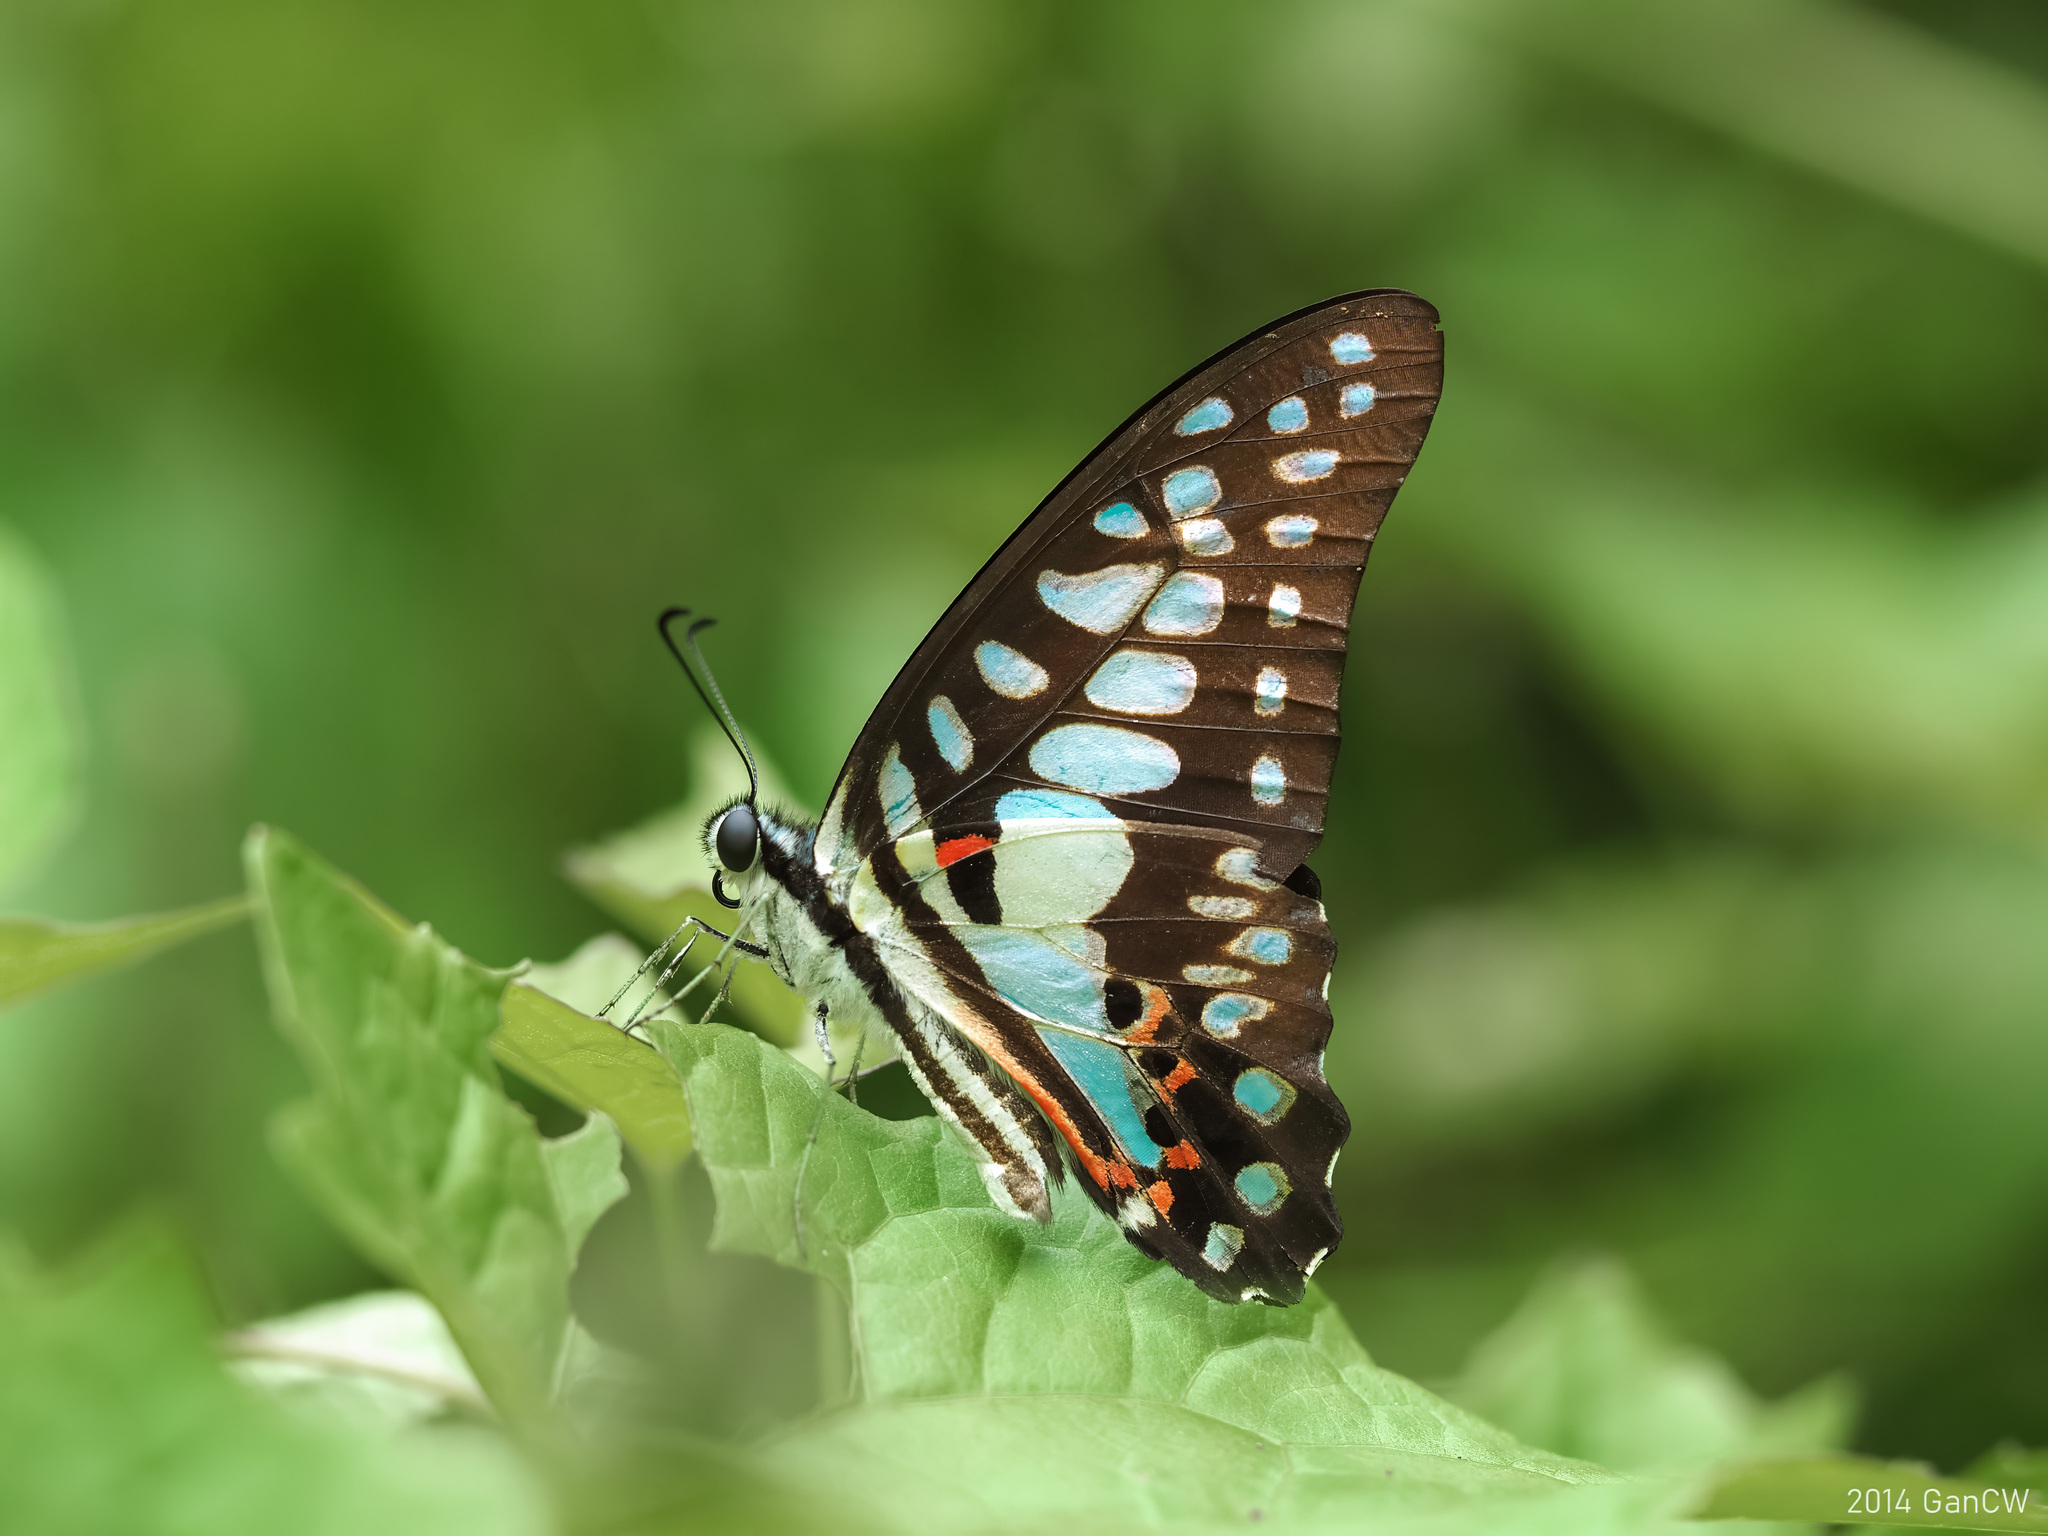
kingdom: Animalia
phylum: Arthropoda
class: Insecta
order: Lepidoptera
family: Papilionidae
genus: Graphium
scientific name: Graphium doson
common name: Common jay
